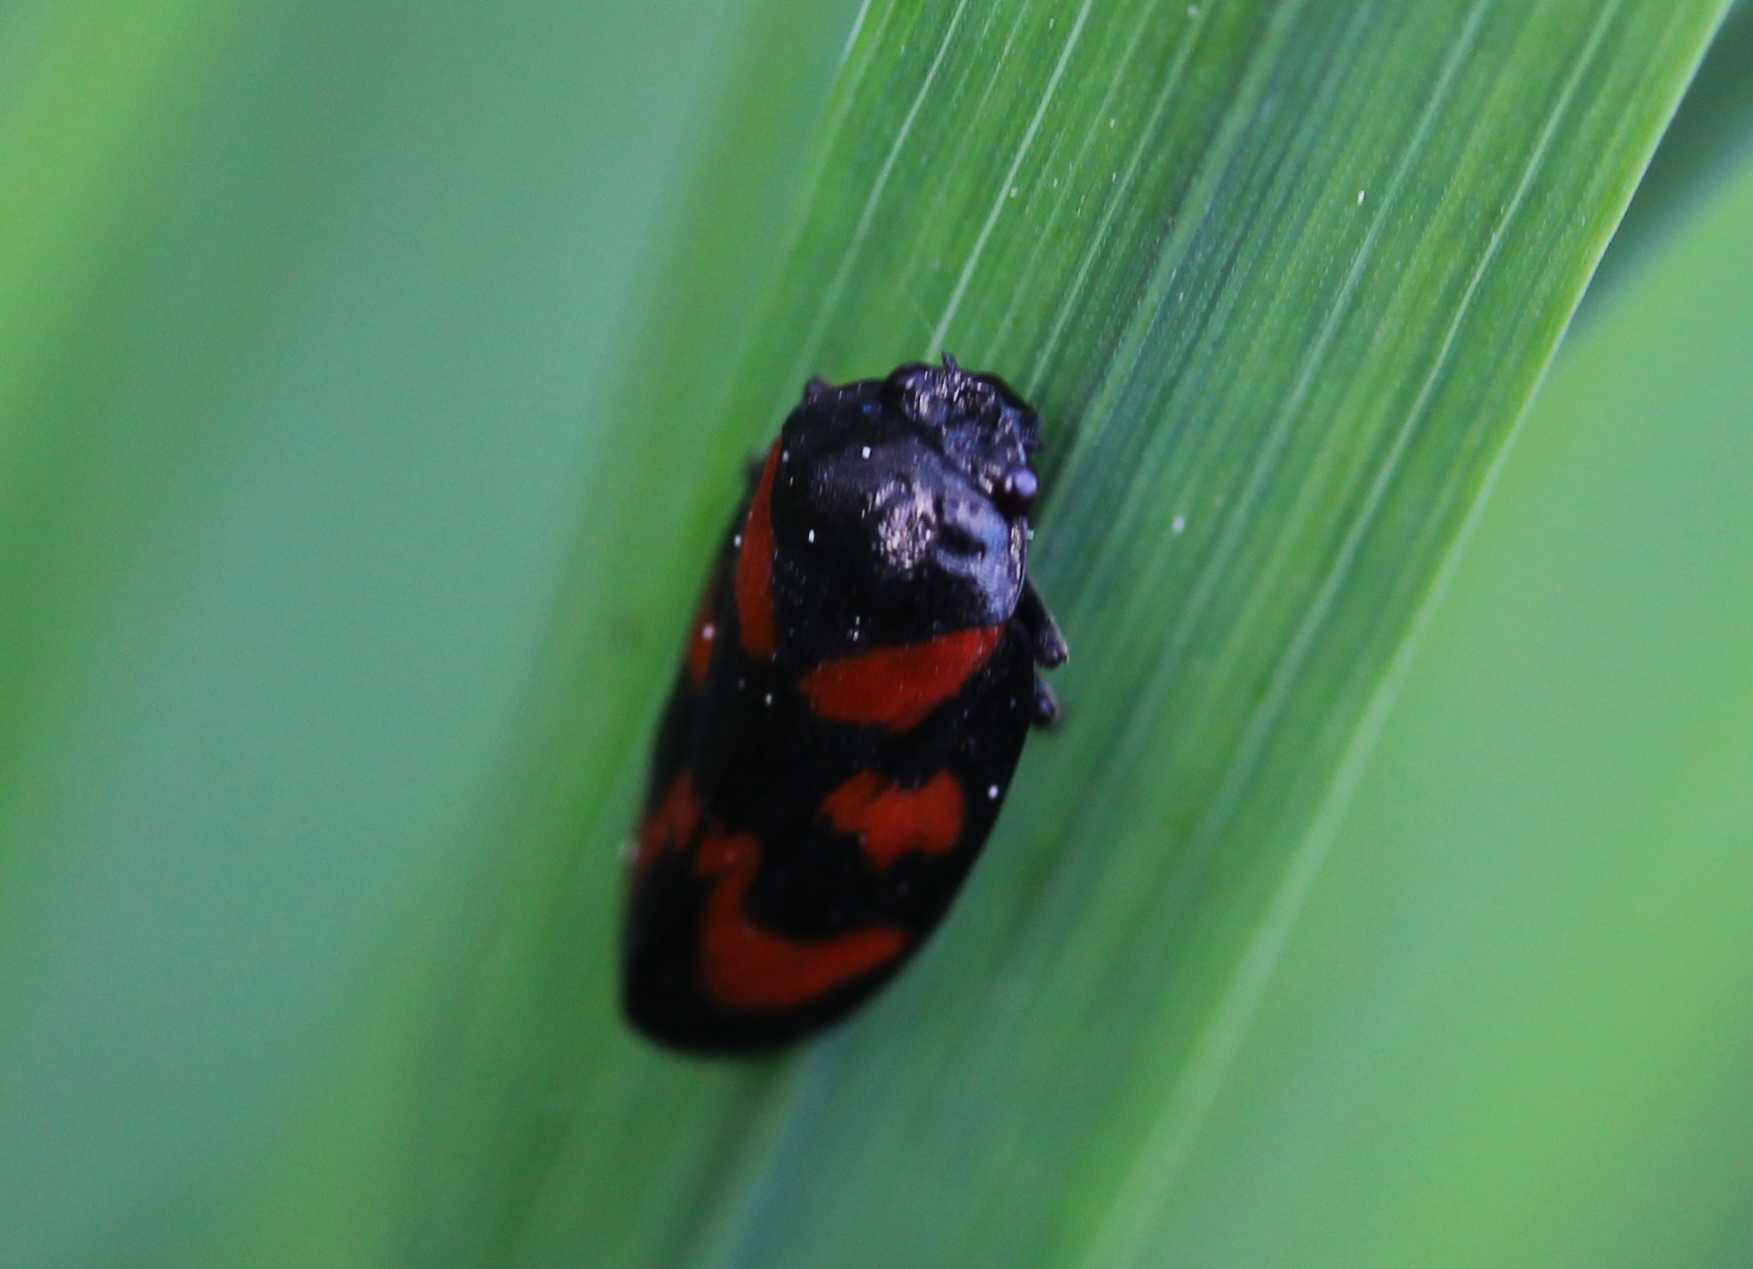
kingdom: Animalia
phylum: Arthropoda
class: Insecta
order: Hemiptera
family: Cercopidae
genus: Cercopis
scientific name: Cercopis vulnerata
